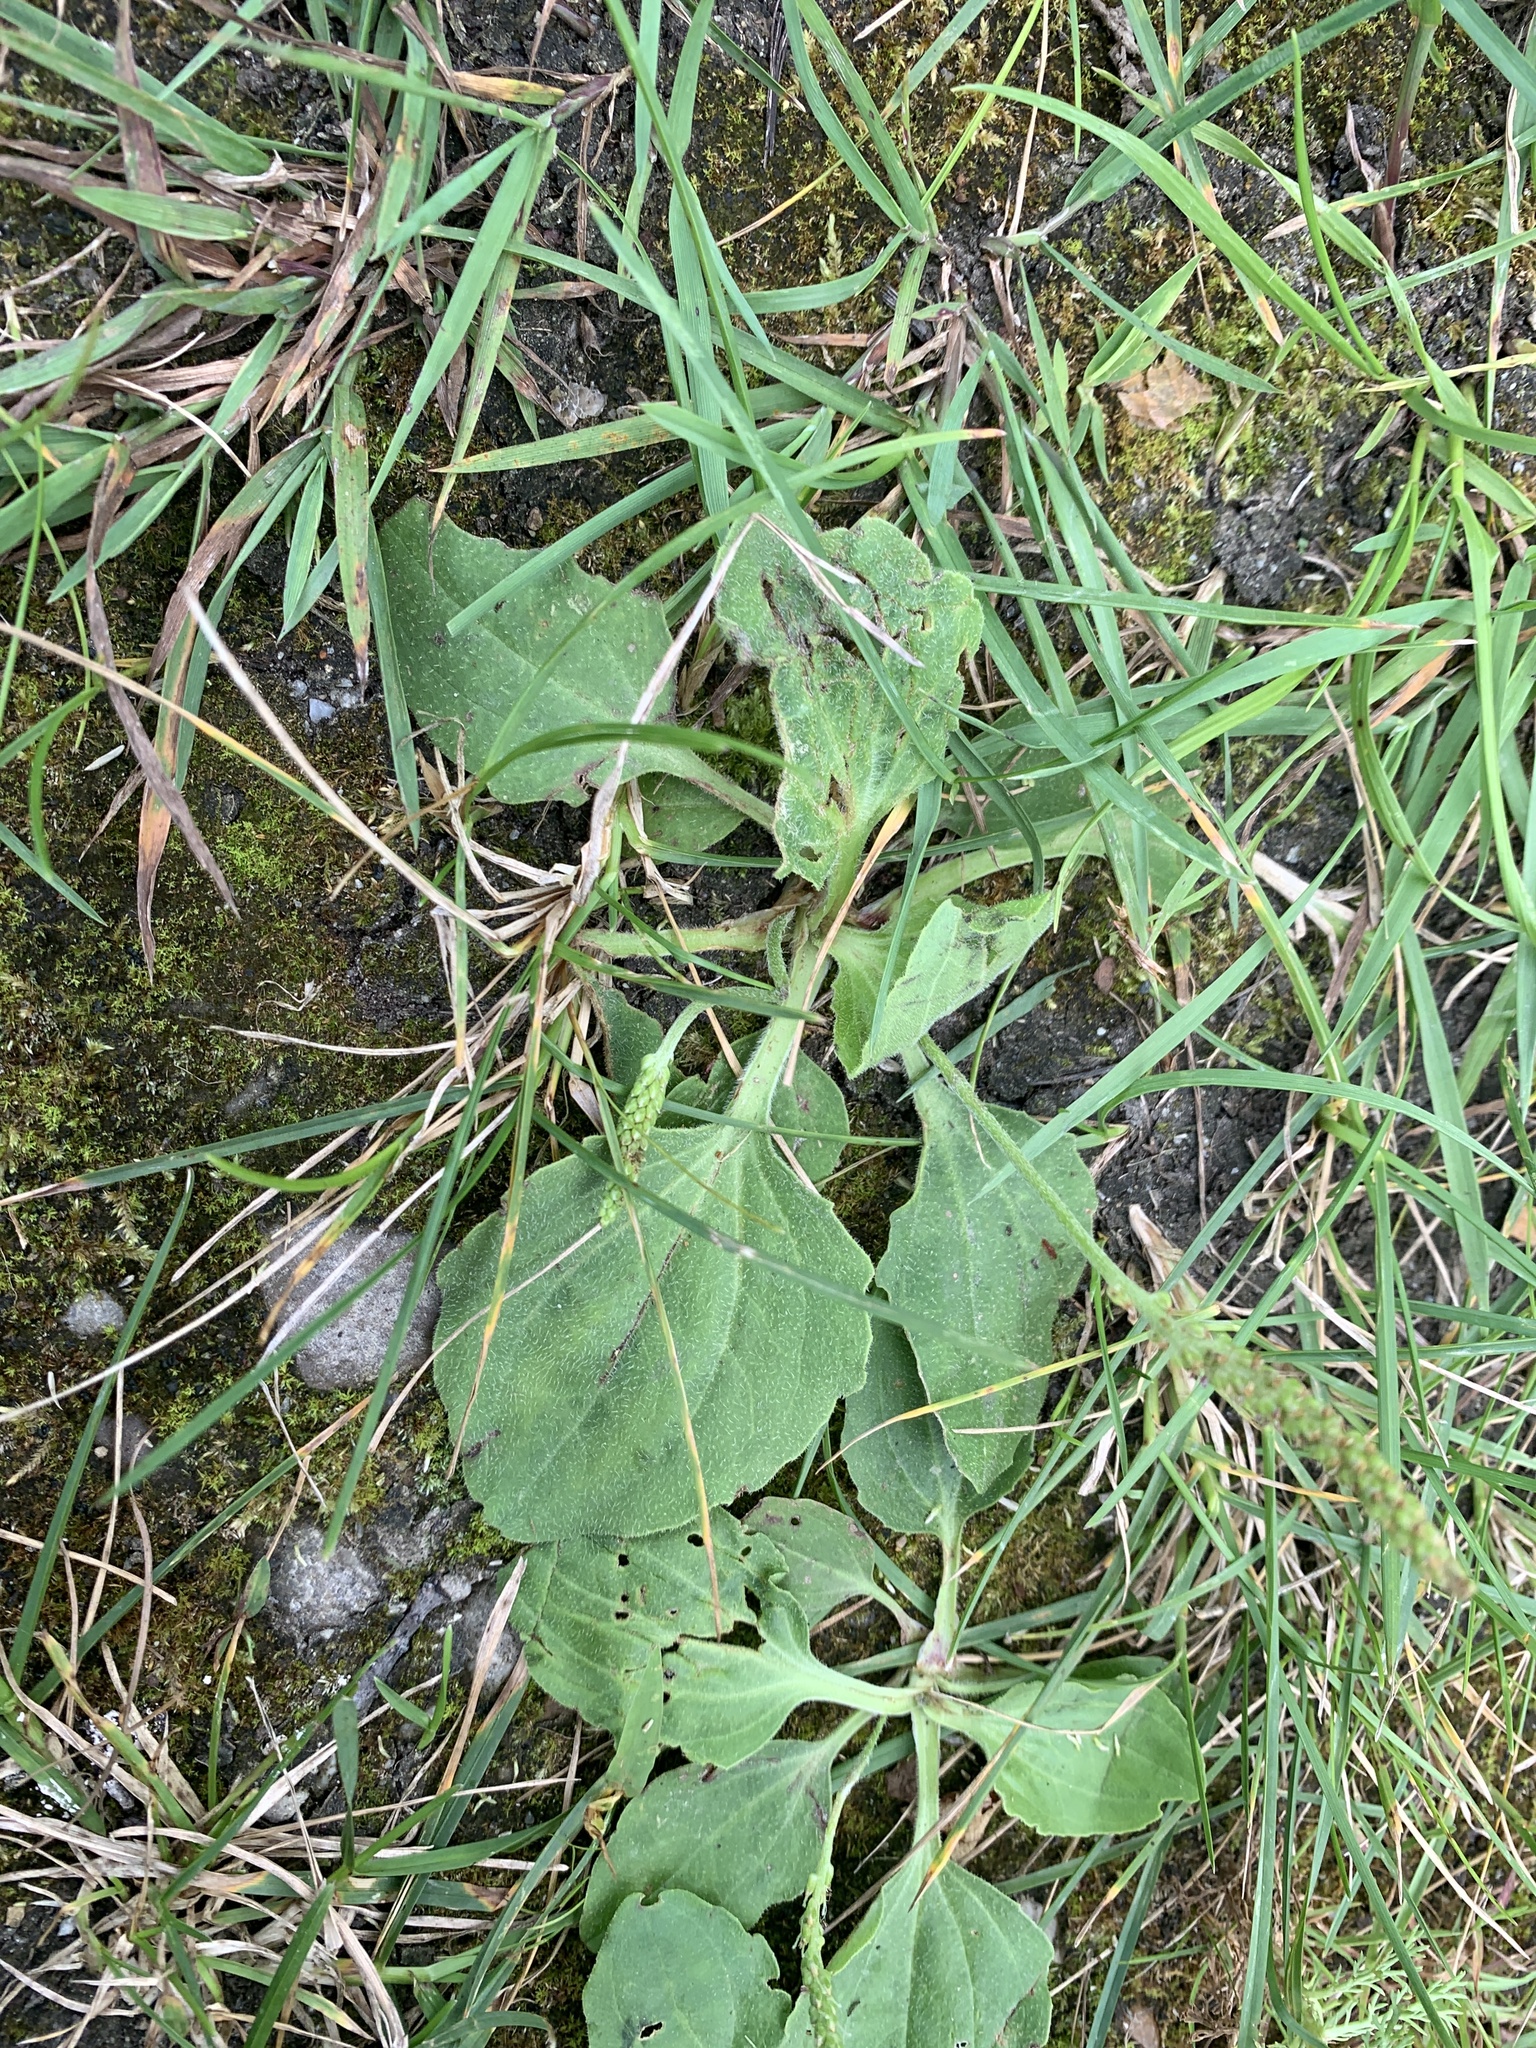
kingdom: Plantae
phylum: Tracheophyta
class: Magnoliopsida
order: Lamiales
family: Plantaginaceae
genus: Plantago
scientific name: Plantago major
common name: Common plantain
